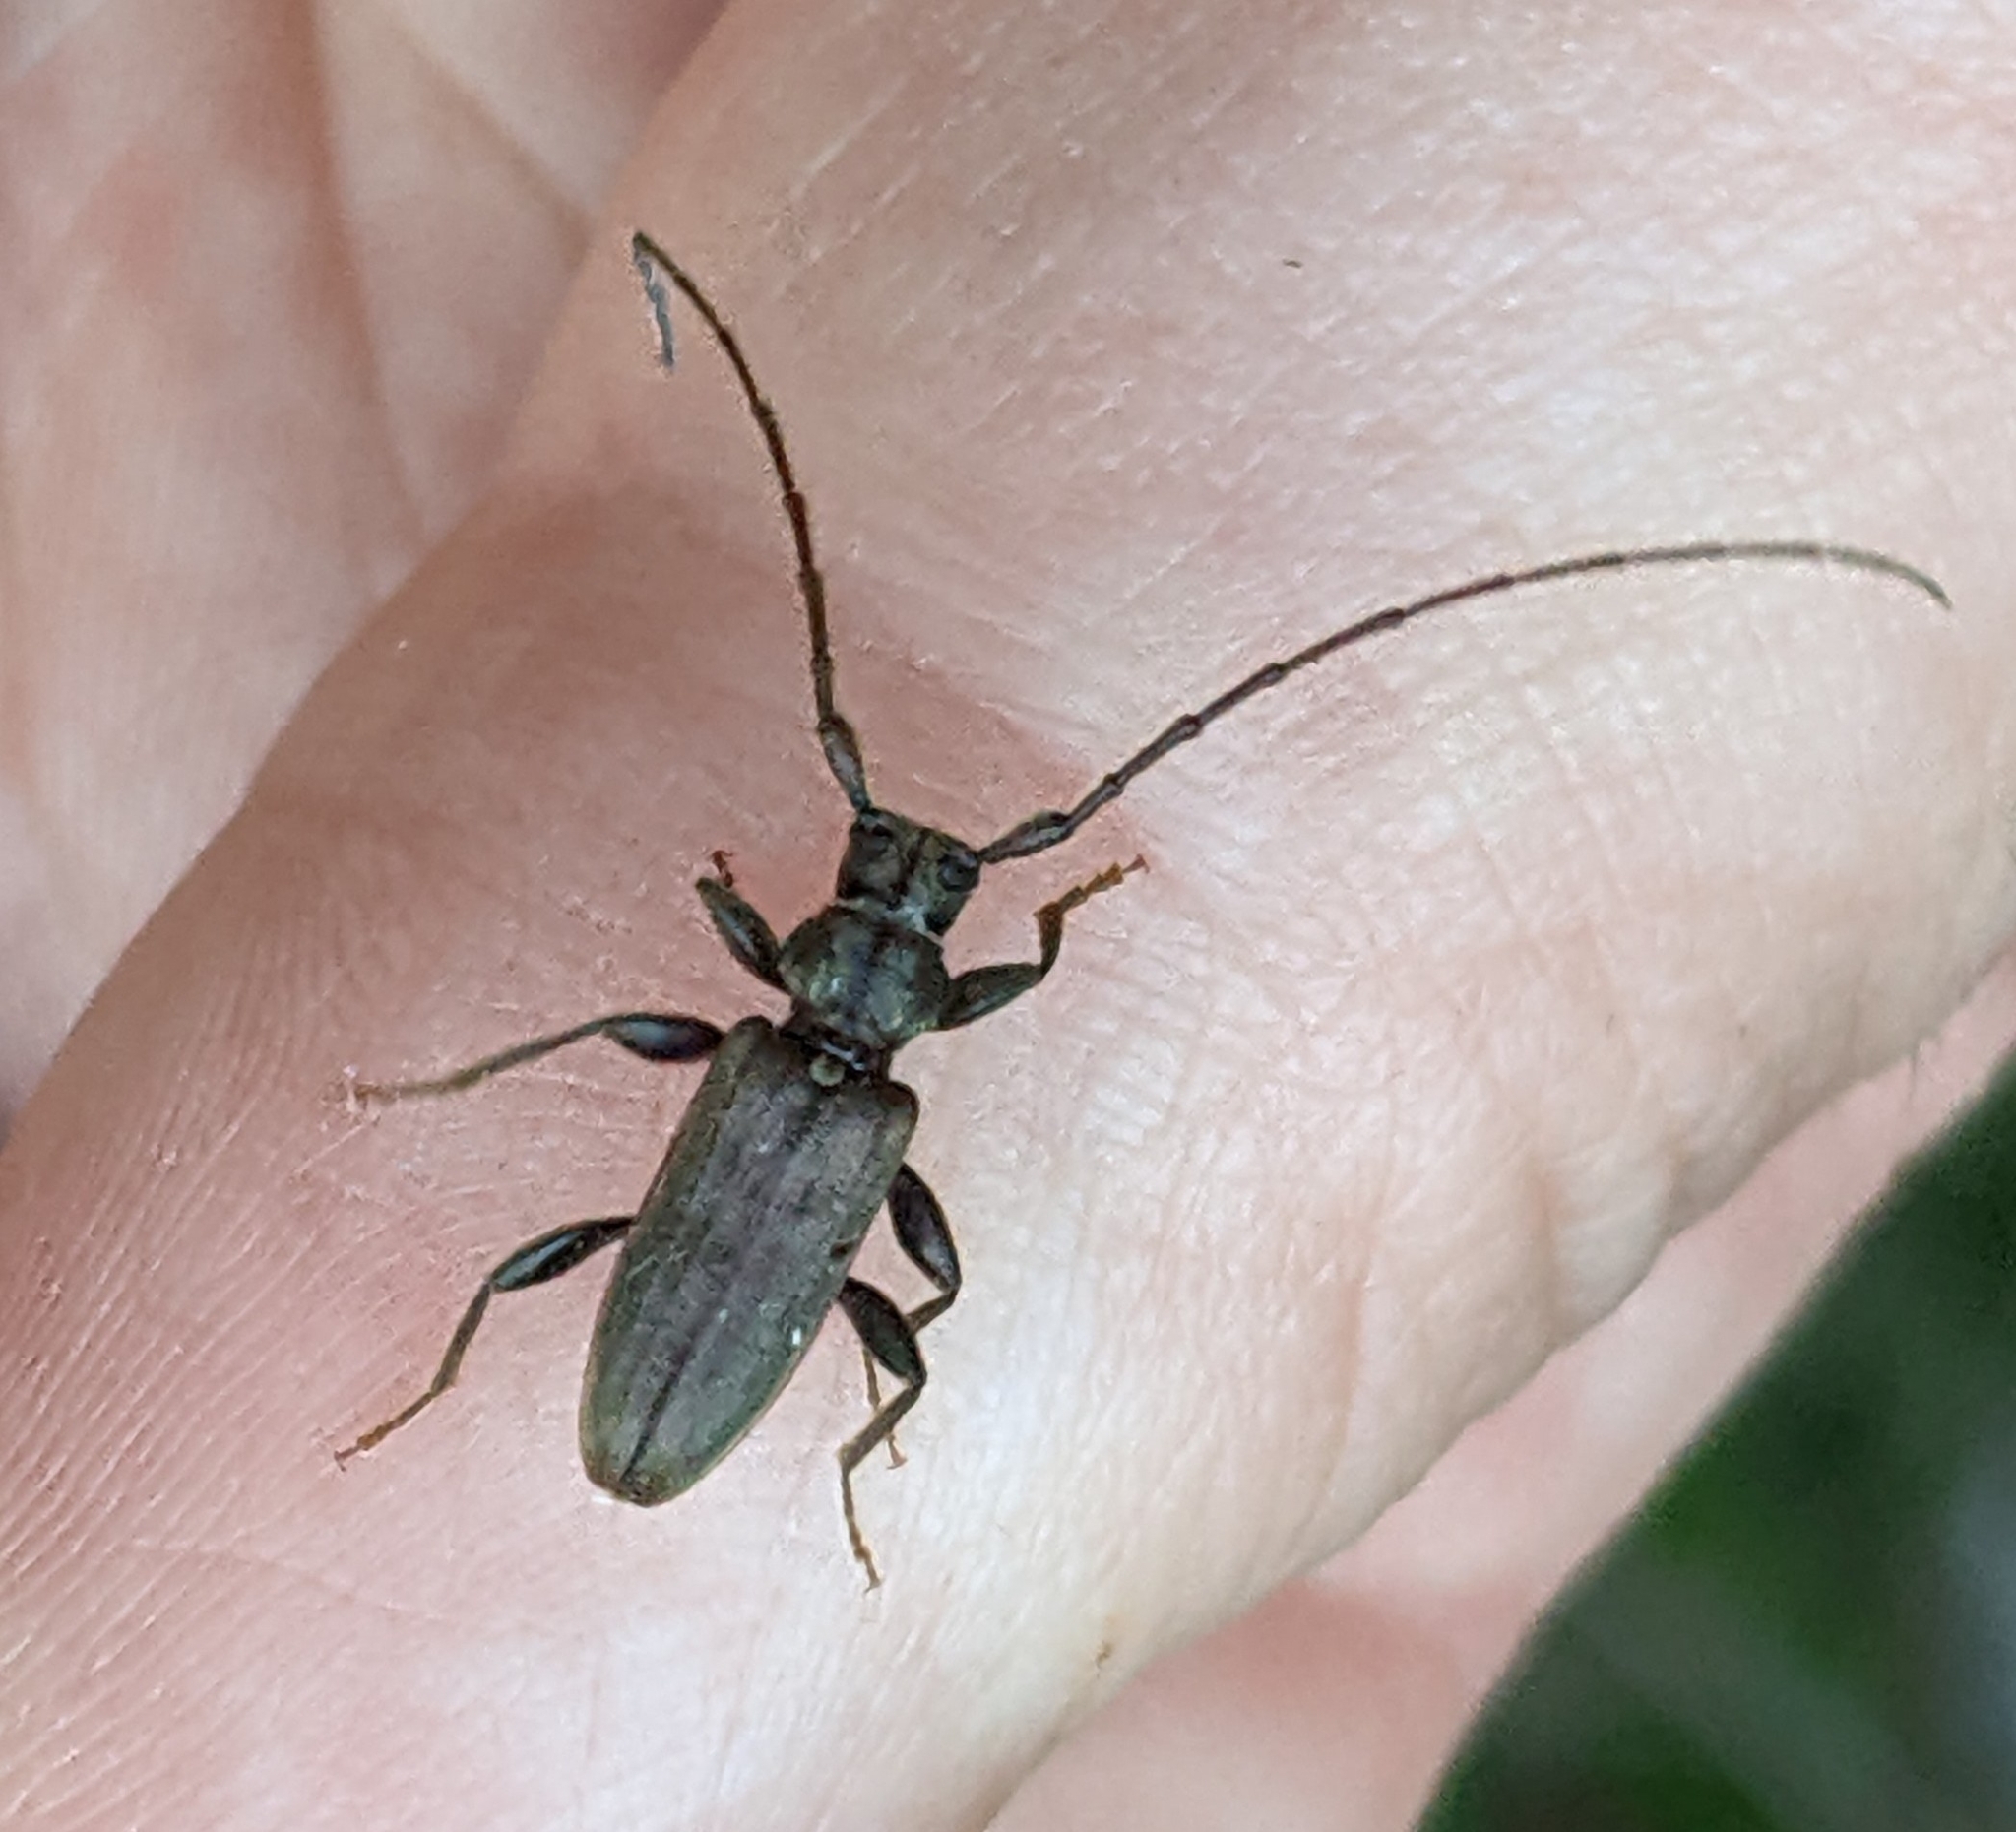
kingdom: Animalia
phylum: Arthropoda
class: Insecta
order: Coleoptera
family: Cerambycidae
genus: Opsimus
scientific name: Opsimus quadrilineatus
